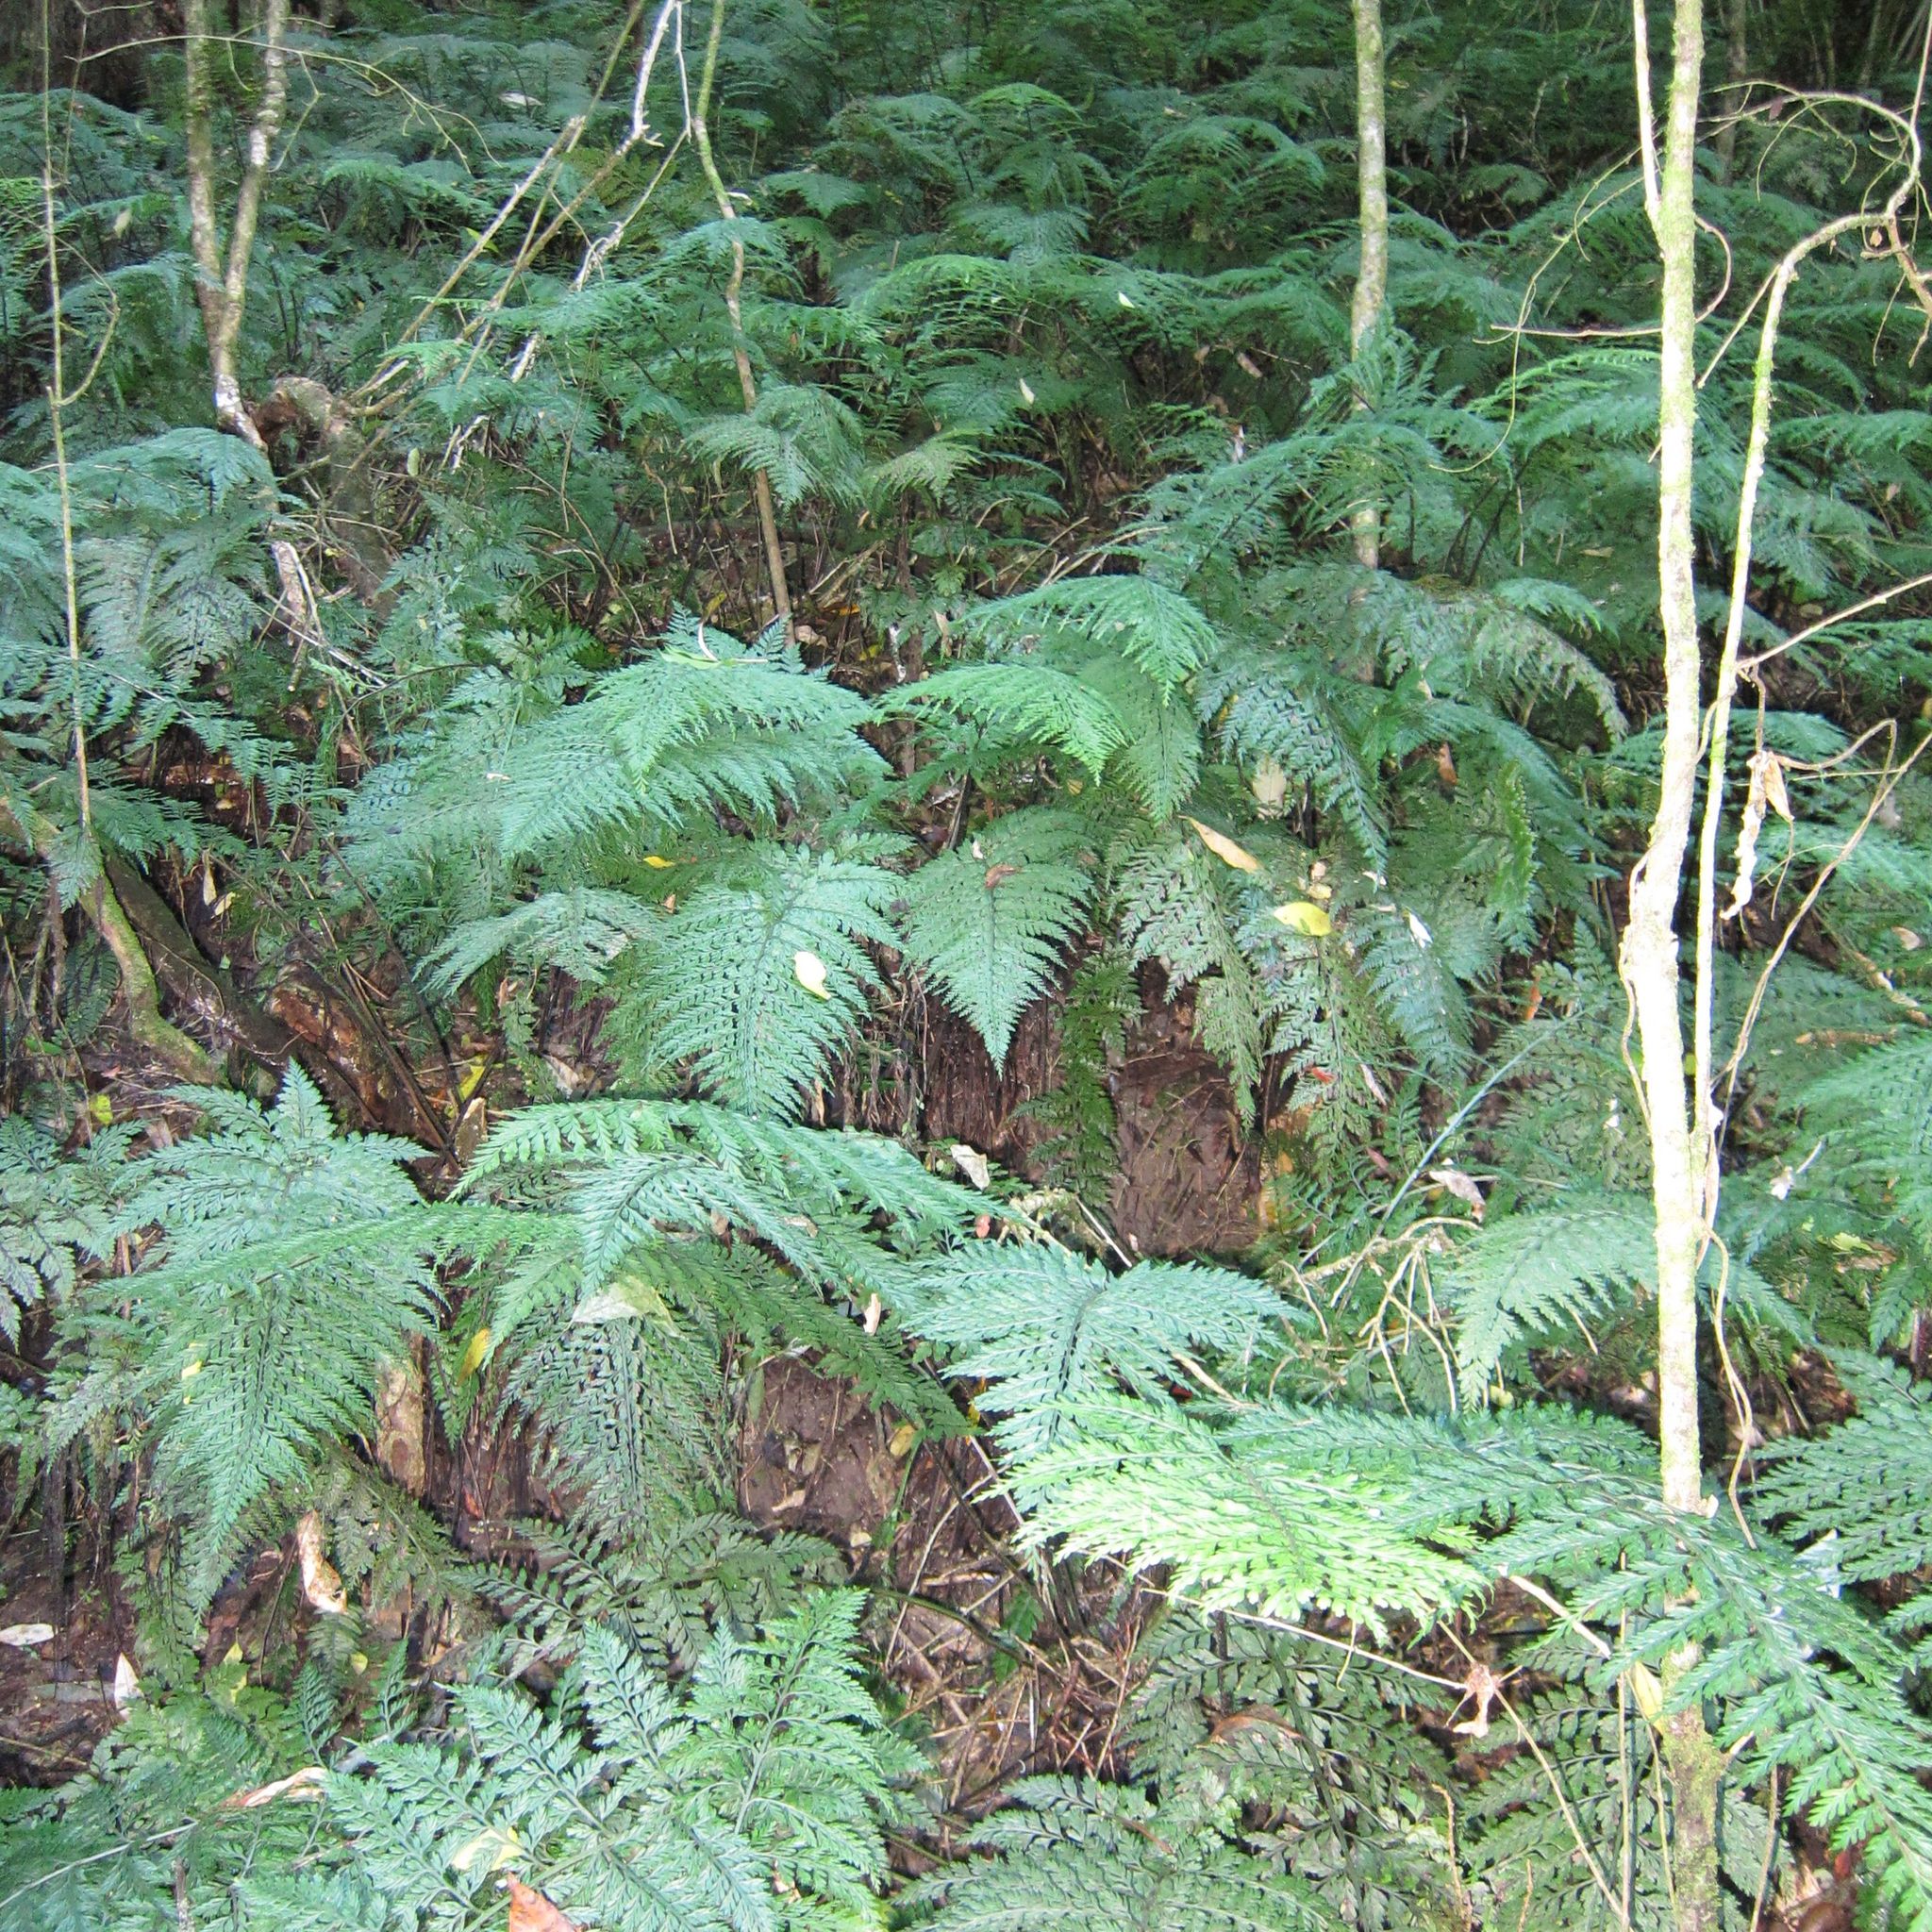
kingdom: Plantae
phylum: Tracheophyta
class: Polypodiopsida
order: Polypodiales
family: Aspleniaceae
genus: Asplenium
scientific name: Asplenium
